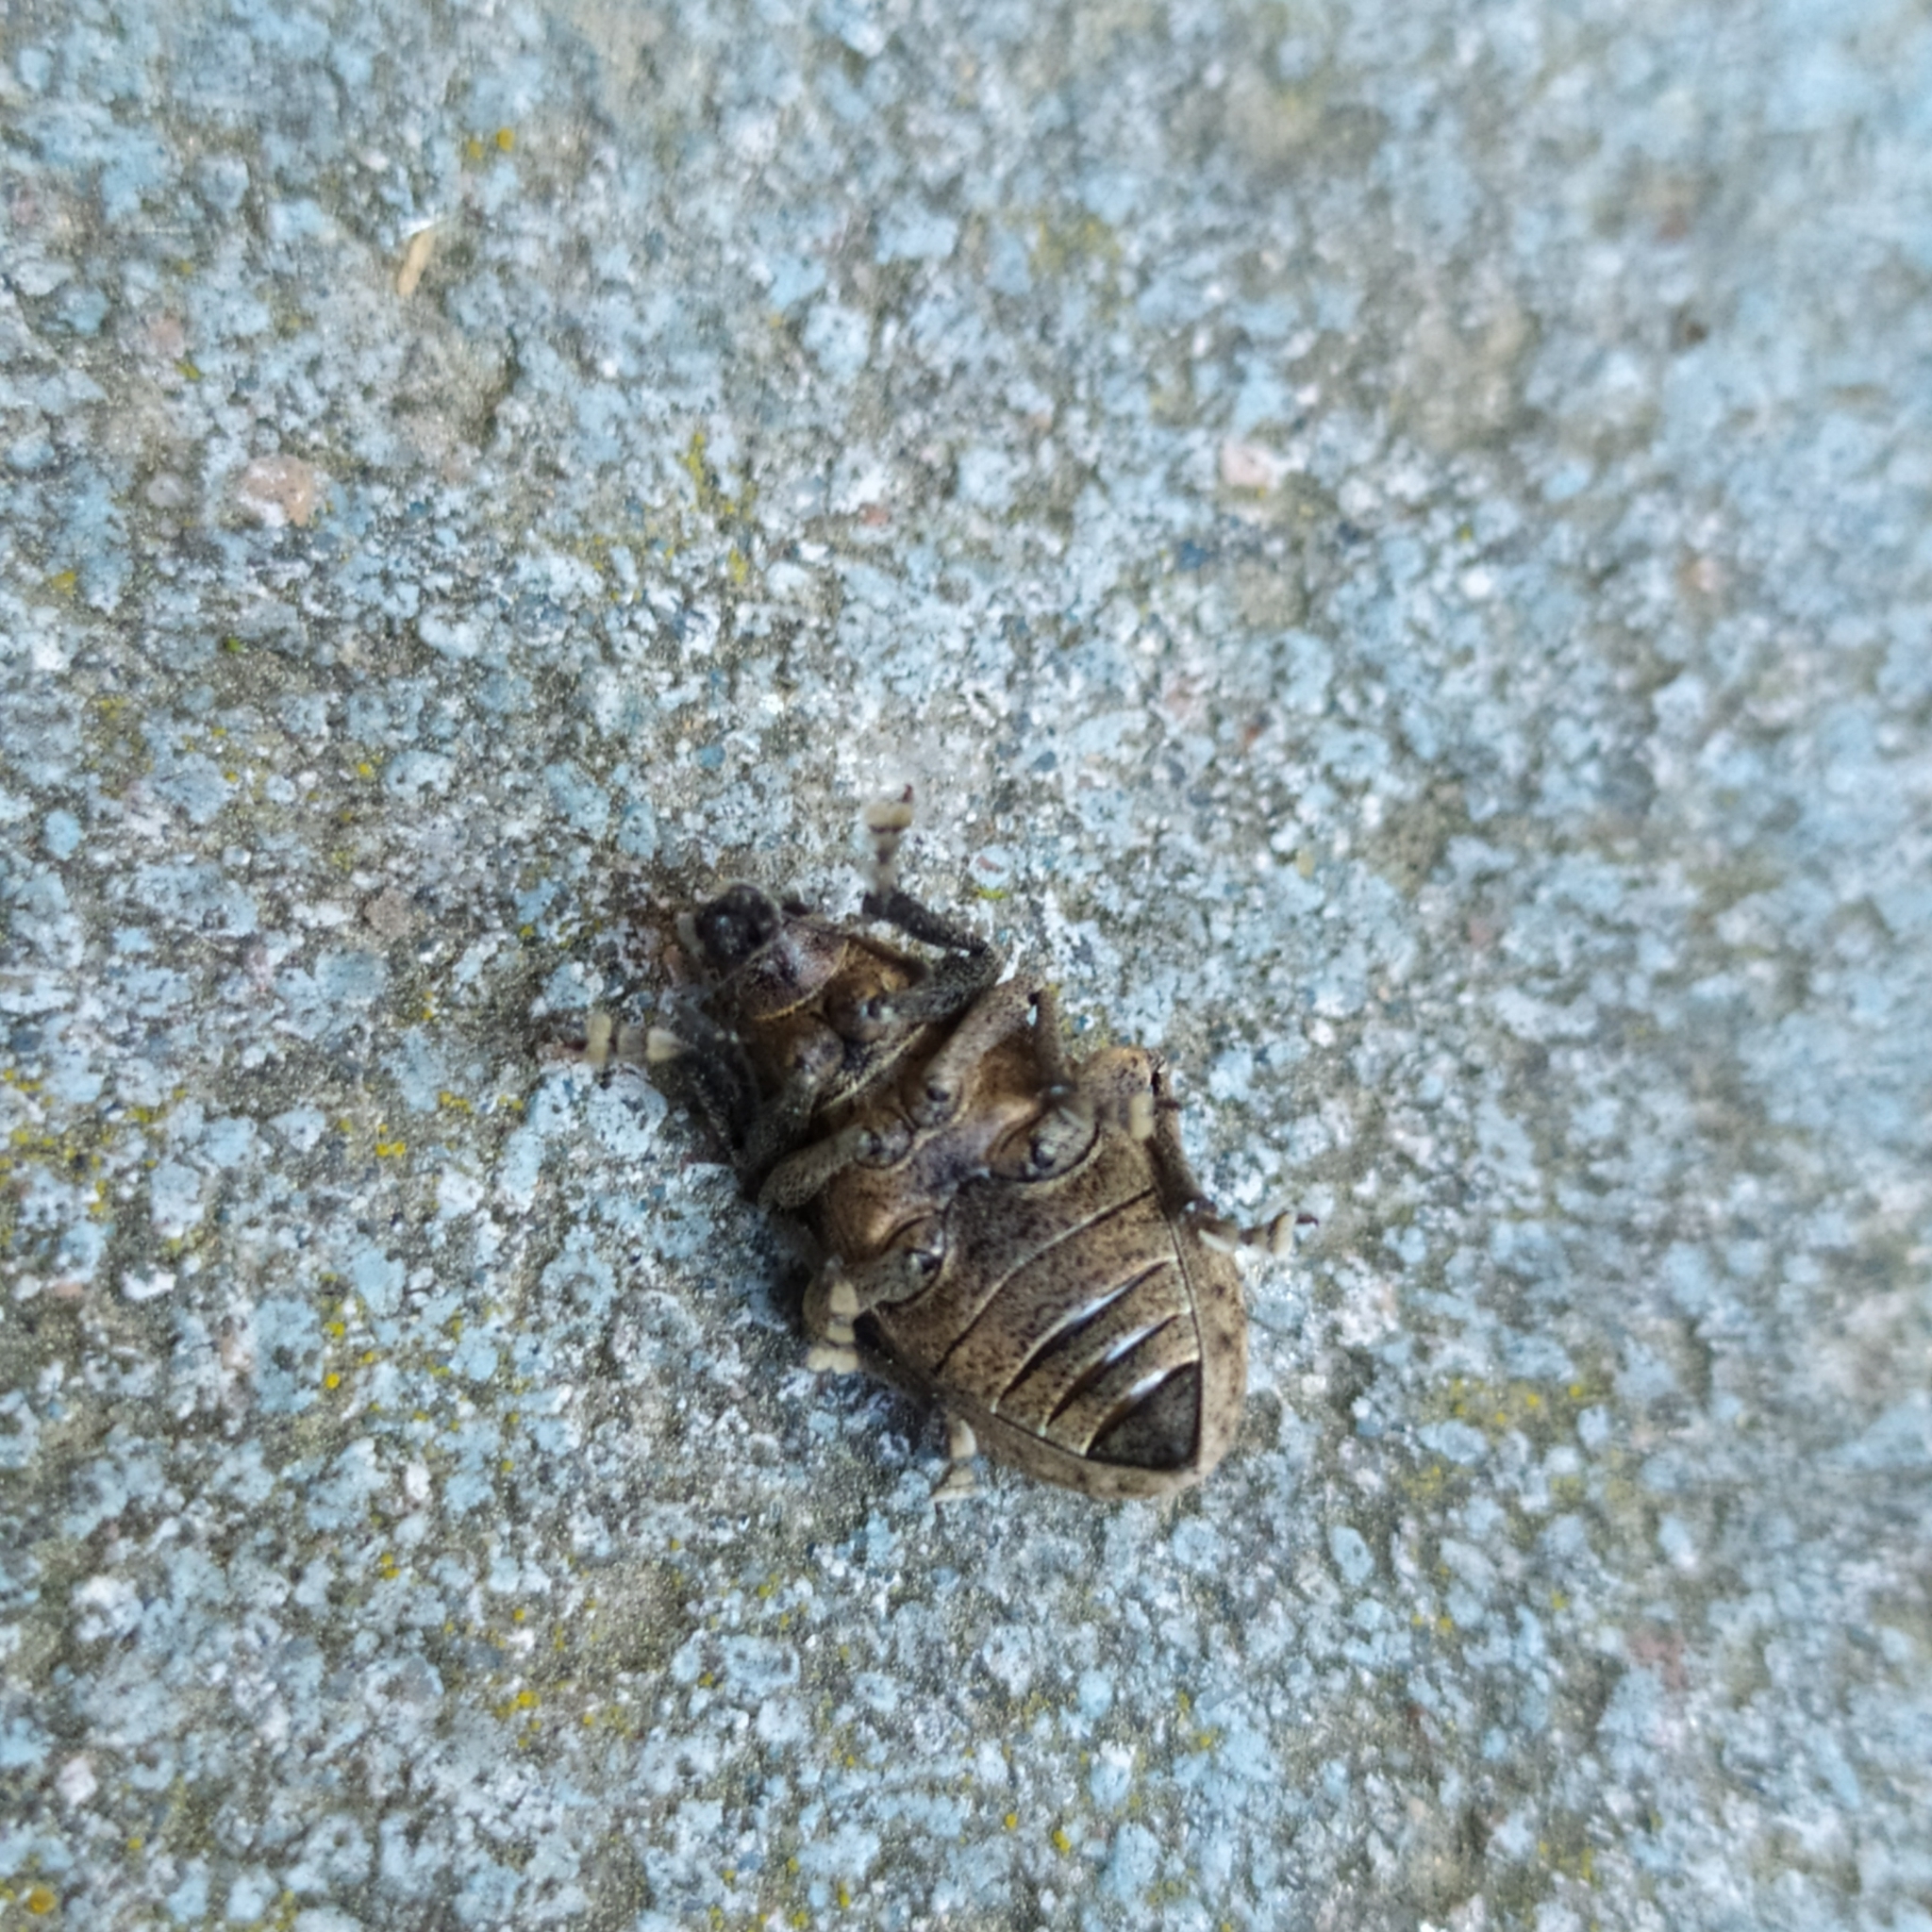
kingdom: Animalia
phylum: Arthropoda
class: Insecta
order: Coleoptera
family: Curculionidae
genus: Liophloeus
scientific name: Liophloeus tessulatus
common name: Weevil
